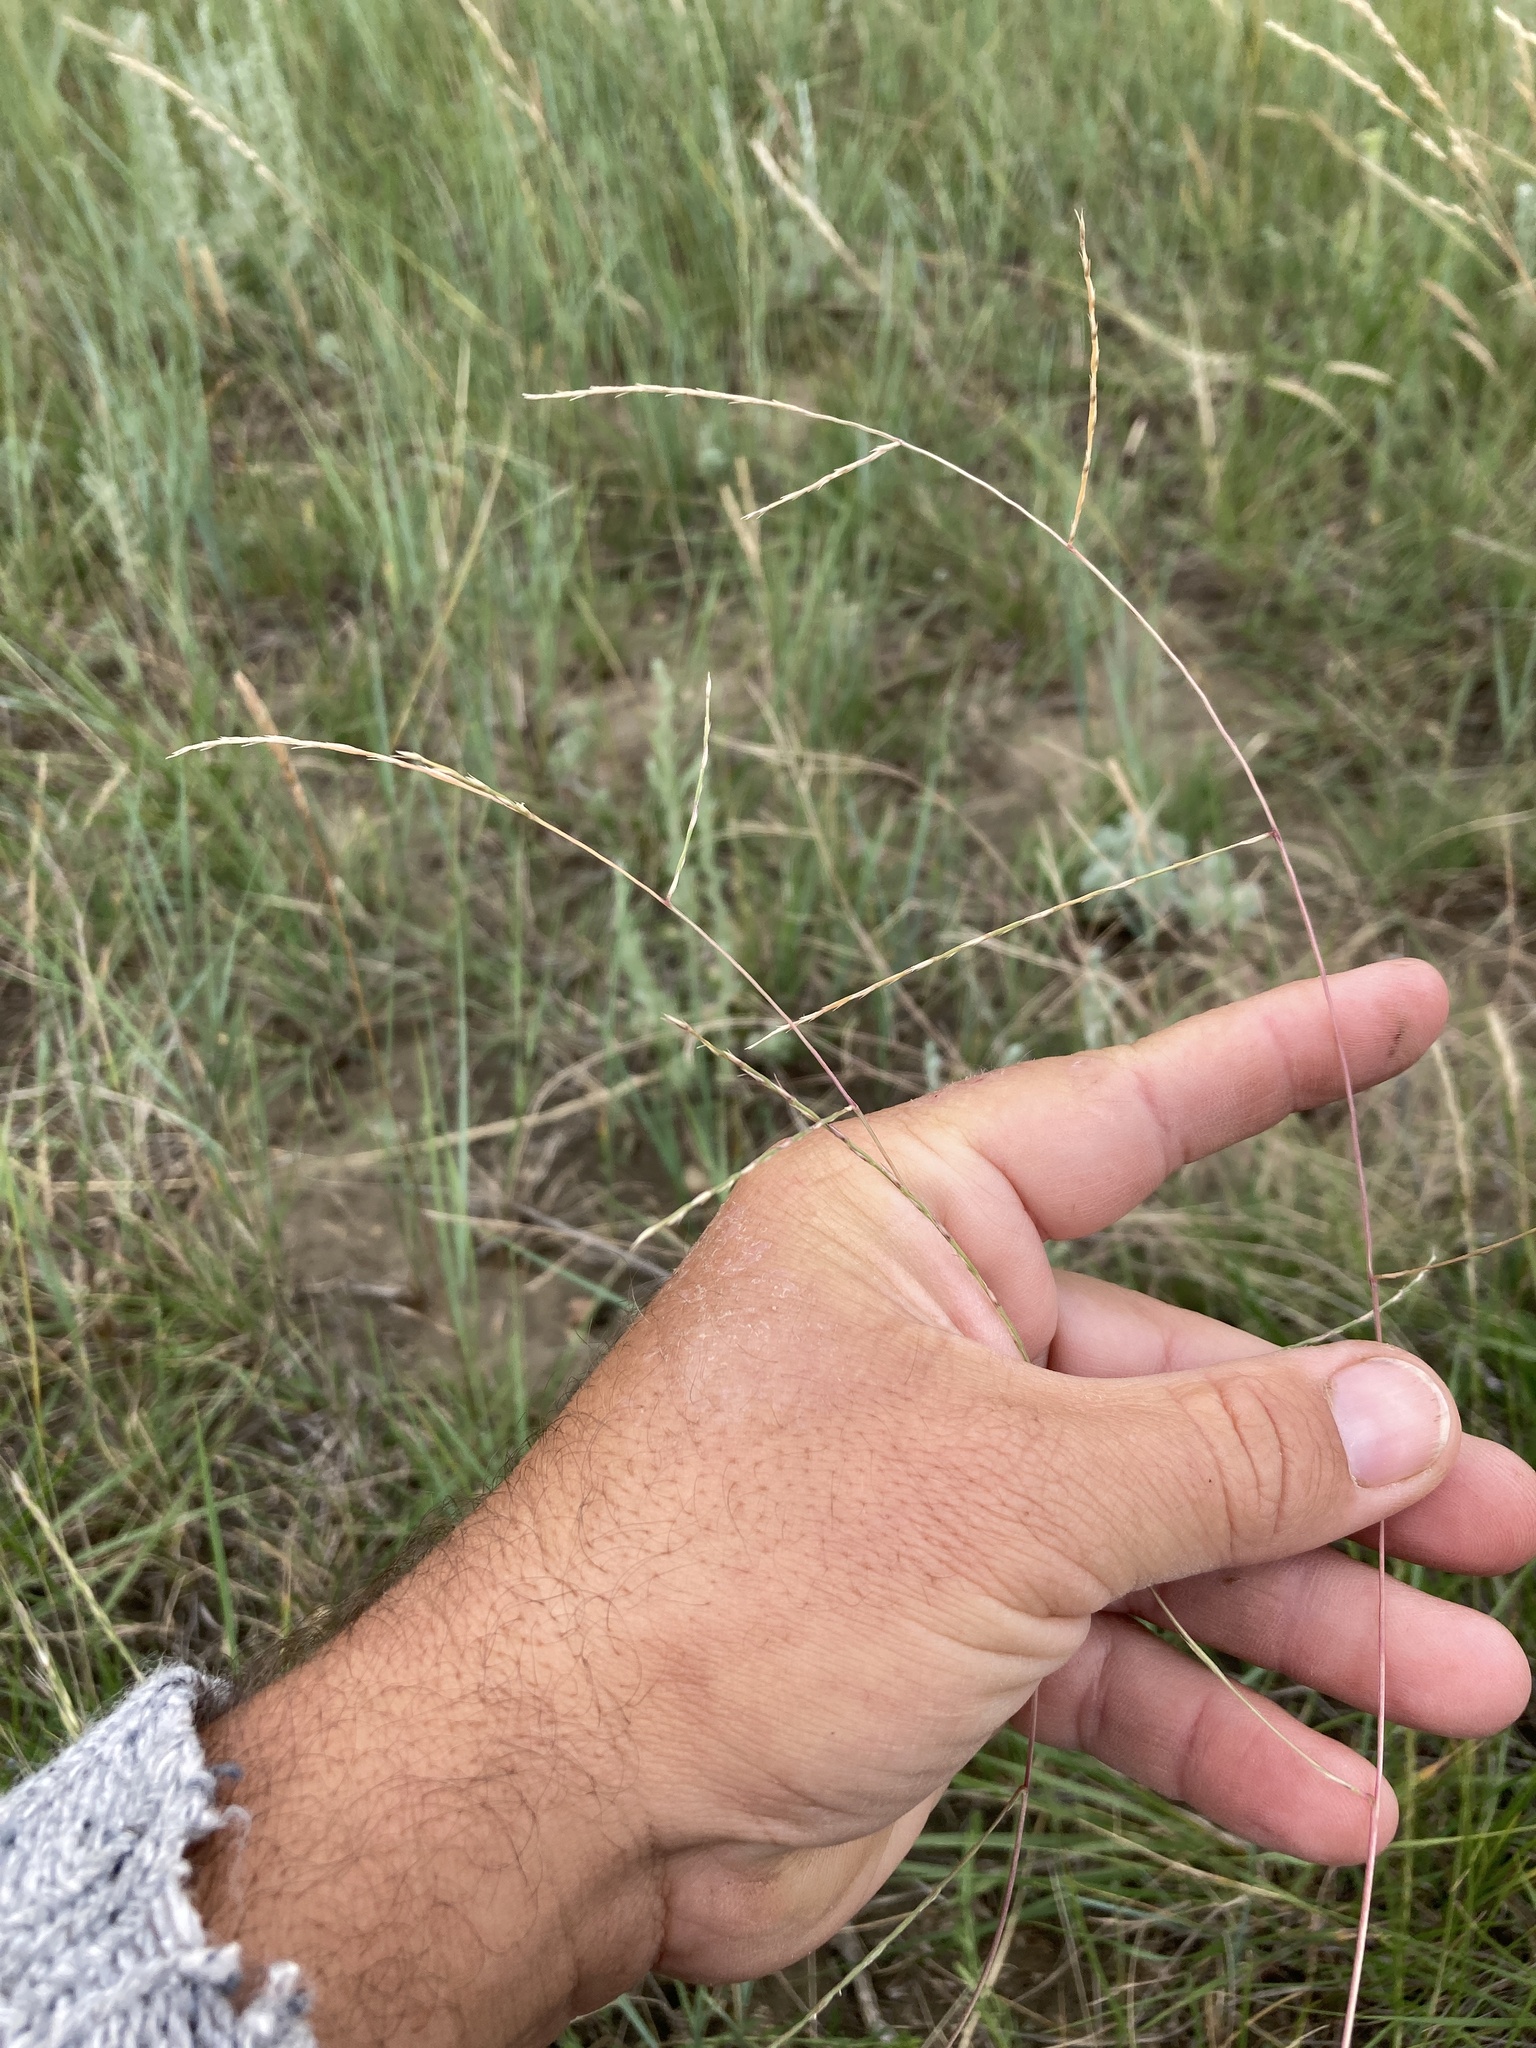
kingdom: Plantae
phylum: Tracheophyta
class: Liliopsida
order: Poales
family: Poaceae
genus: Muhlenbergia
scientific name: Muhlenbergia paniculata
